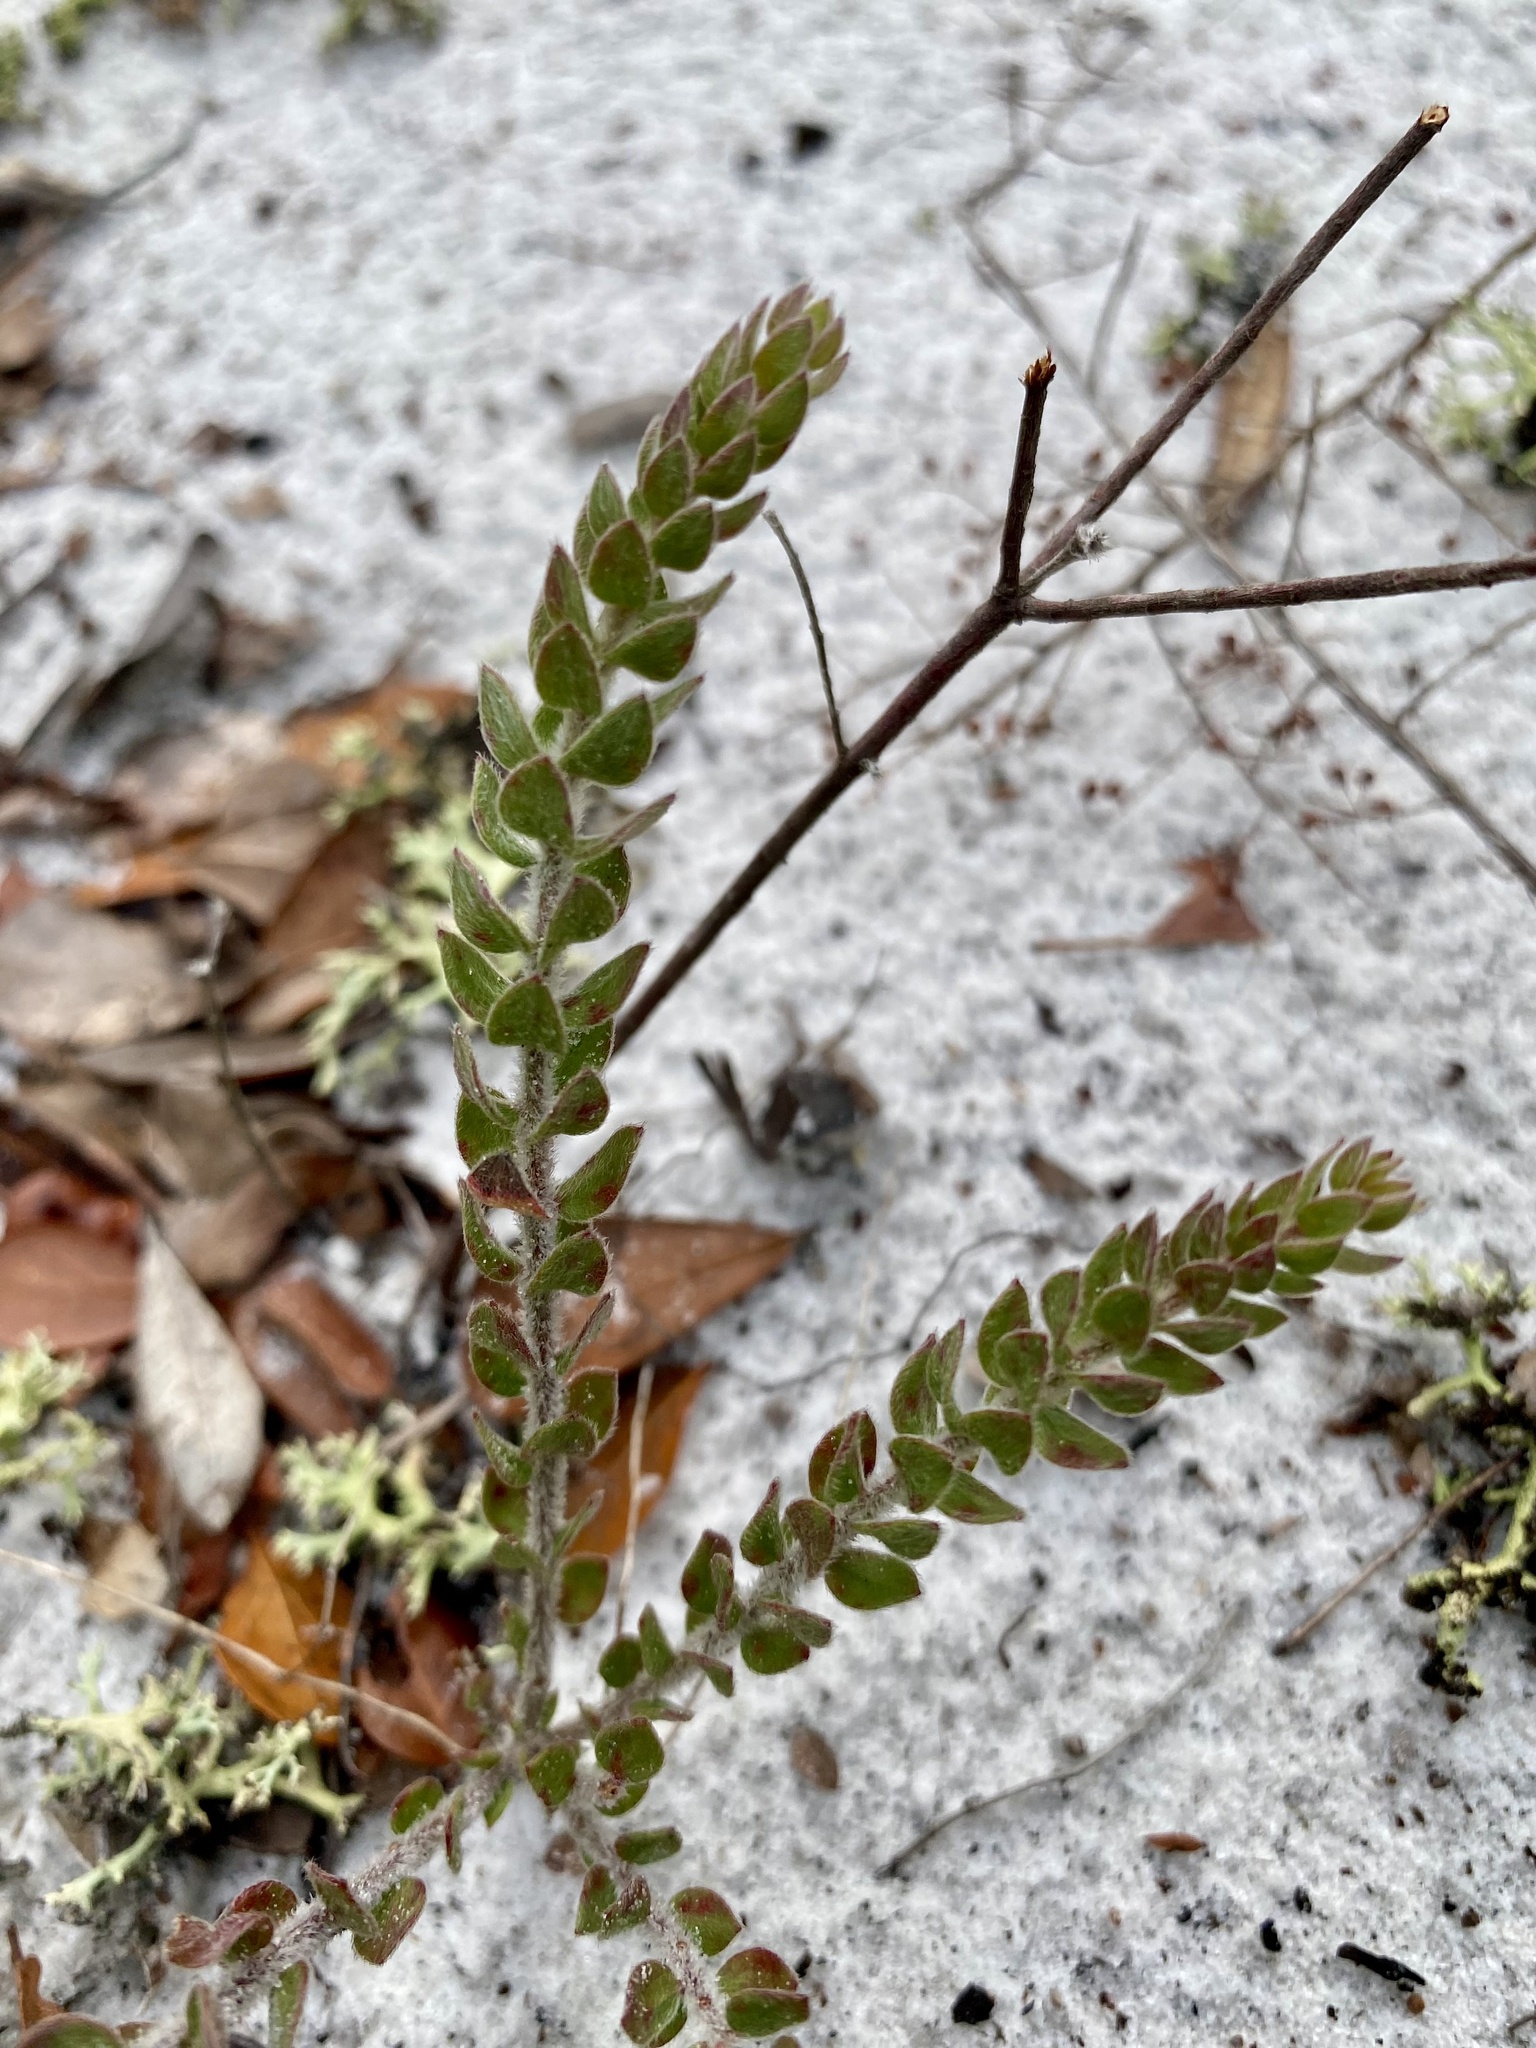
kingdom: Plantae
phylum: Tracheophyta
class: Magnoliopsida
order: Malvales
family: Cistaceae
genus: Lechea
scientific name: Lechea cernua
